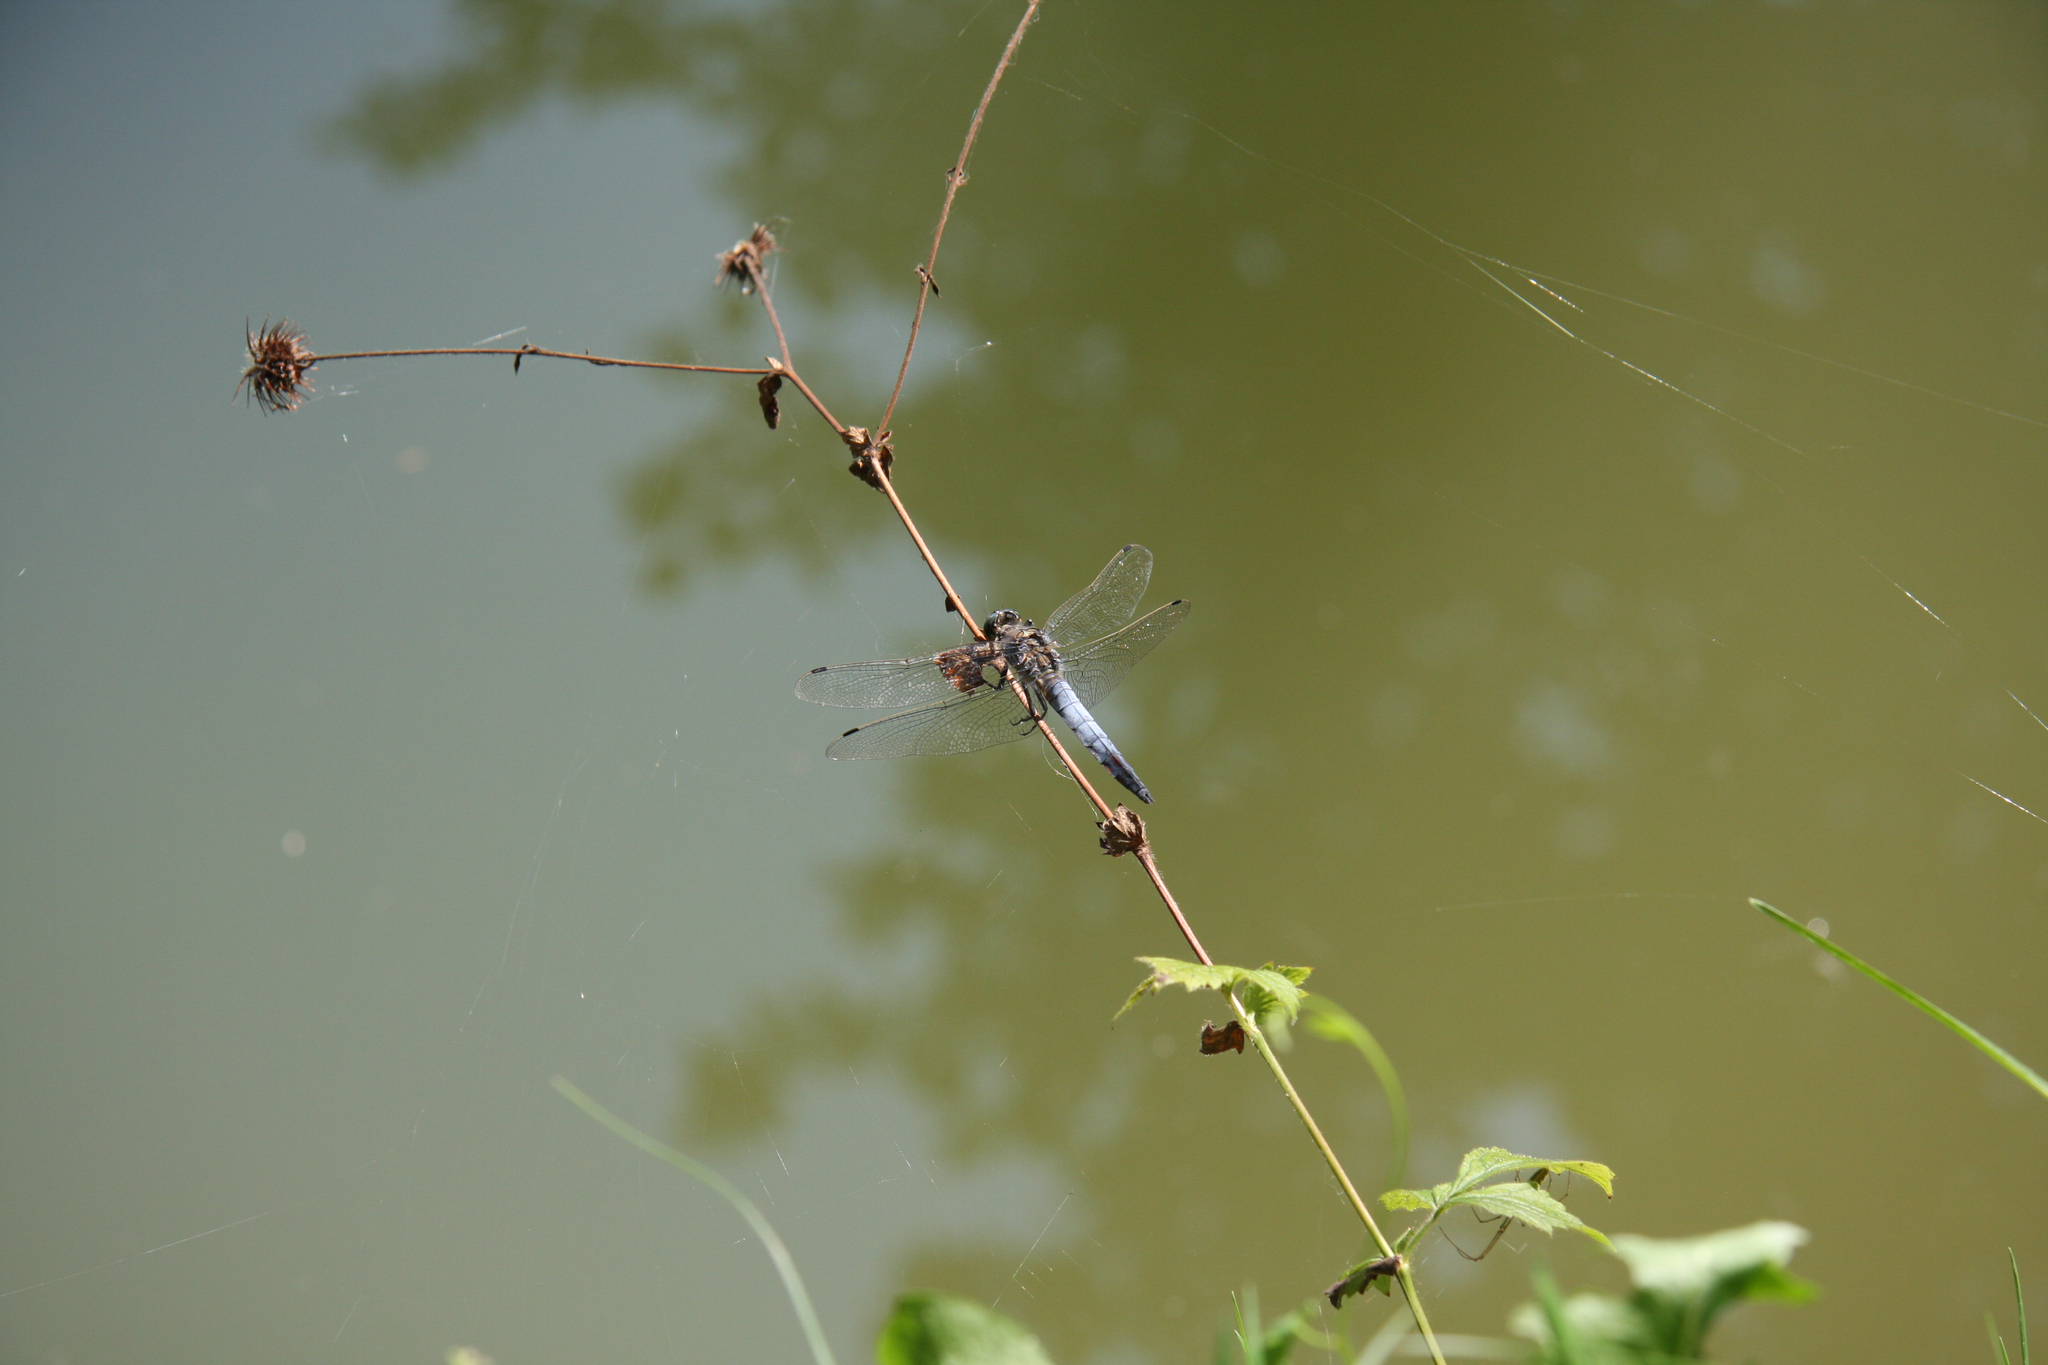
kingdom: Animalia
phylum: Arthropoda
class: Insecta
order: Odonata
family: Libellulidae
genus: Orthetrum
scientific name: Orthetrum cancellatum
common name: Black-tailed skimmer
